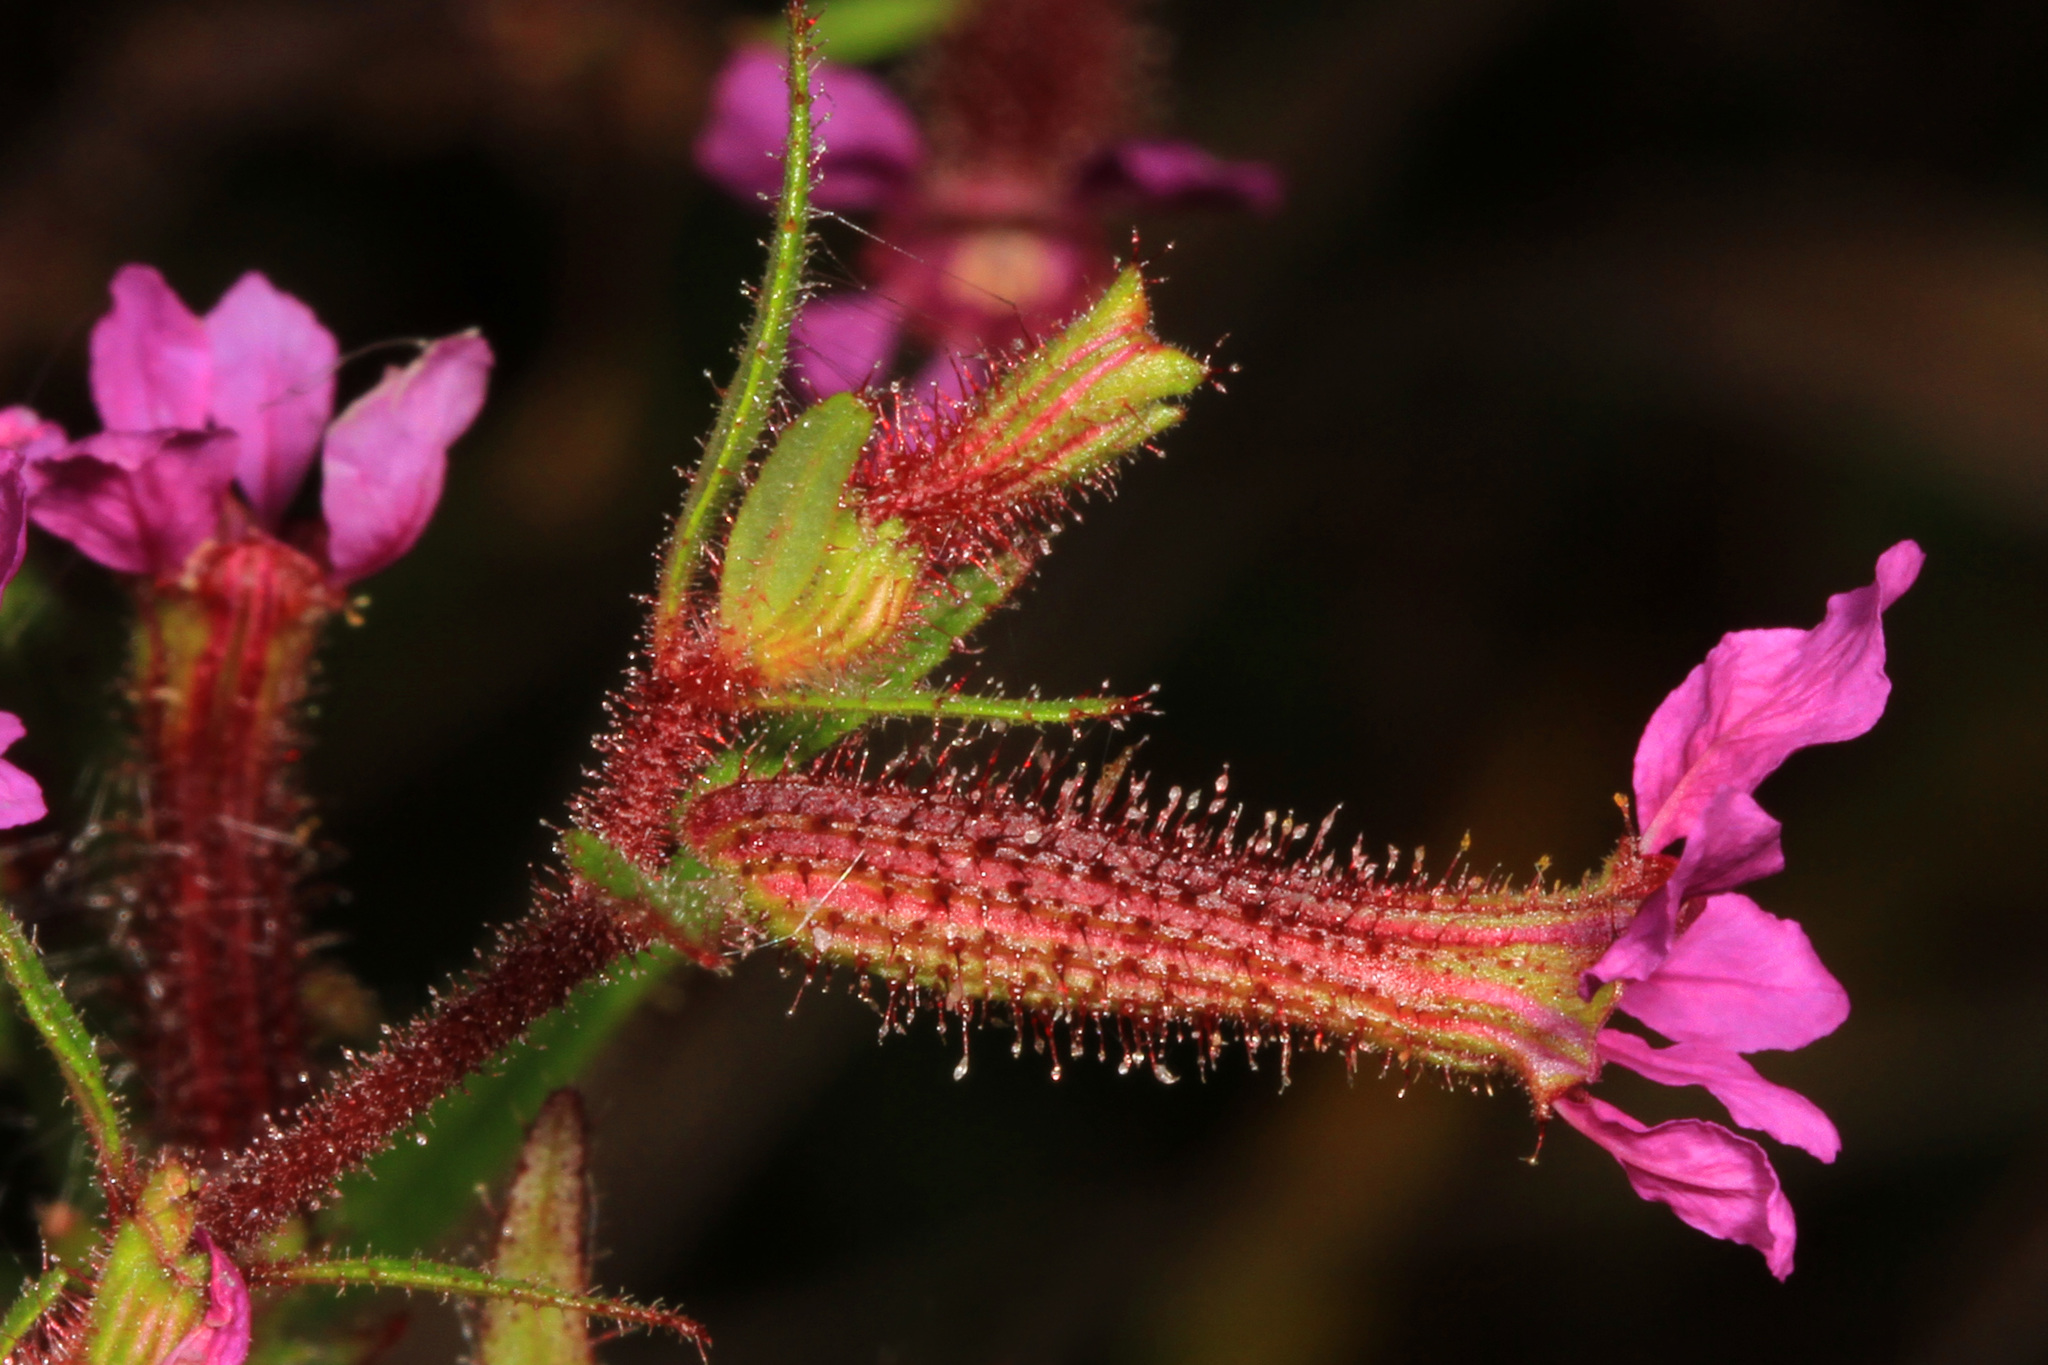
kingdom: Plantae
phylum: Tracheophyta
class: Magnoliopsida
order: Myrtales
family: Lythraceae
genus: Cuphea
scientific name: Cuphea viscosissima
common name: Clammy cuphea
